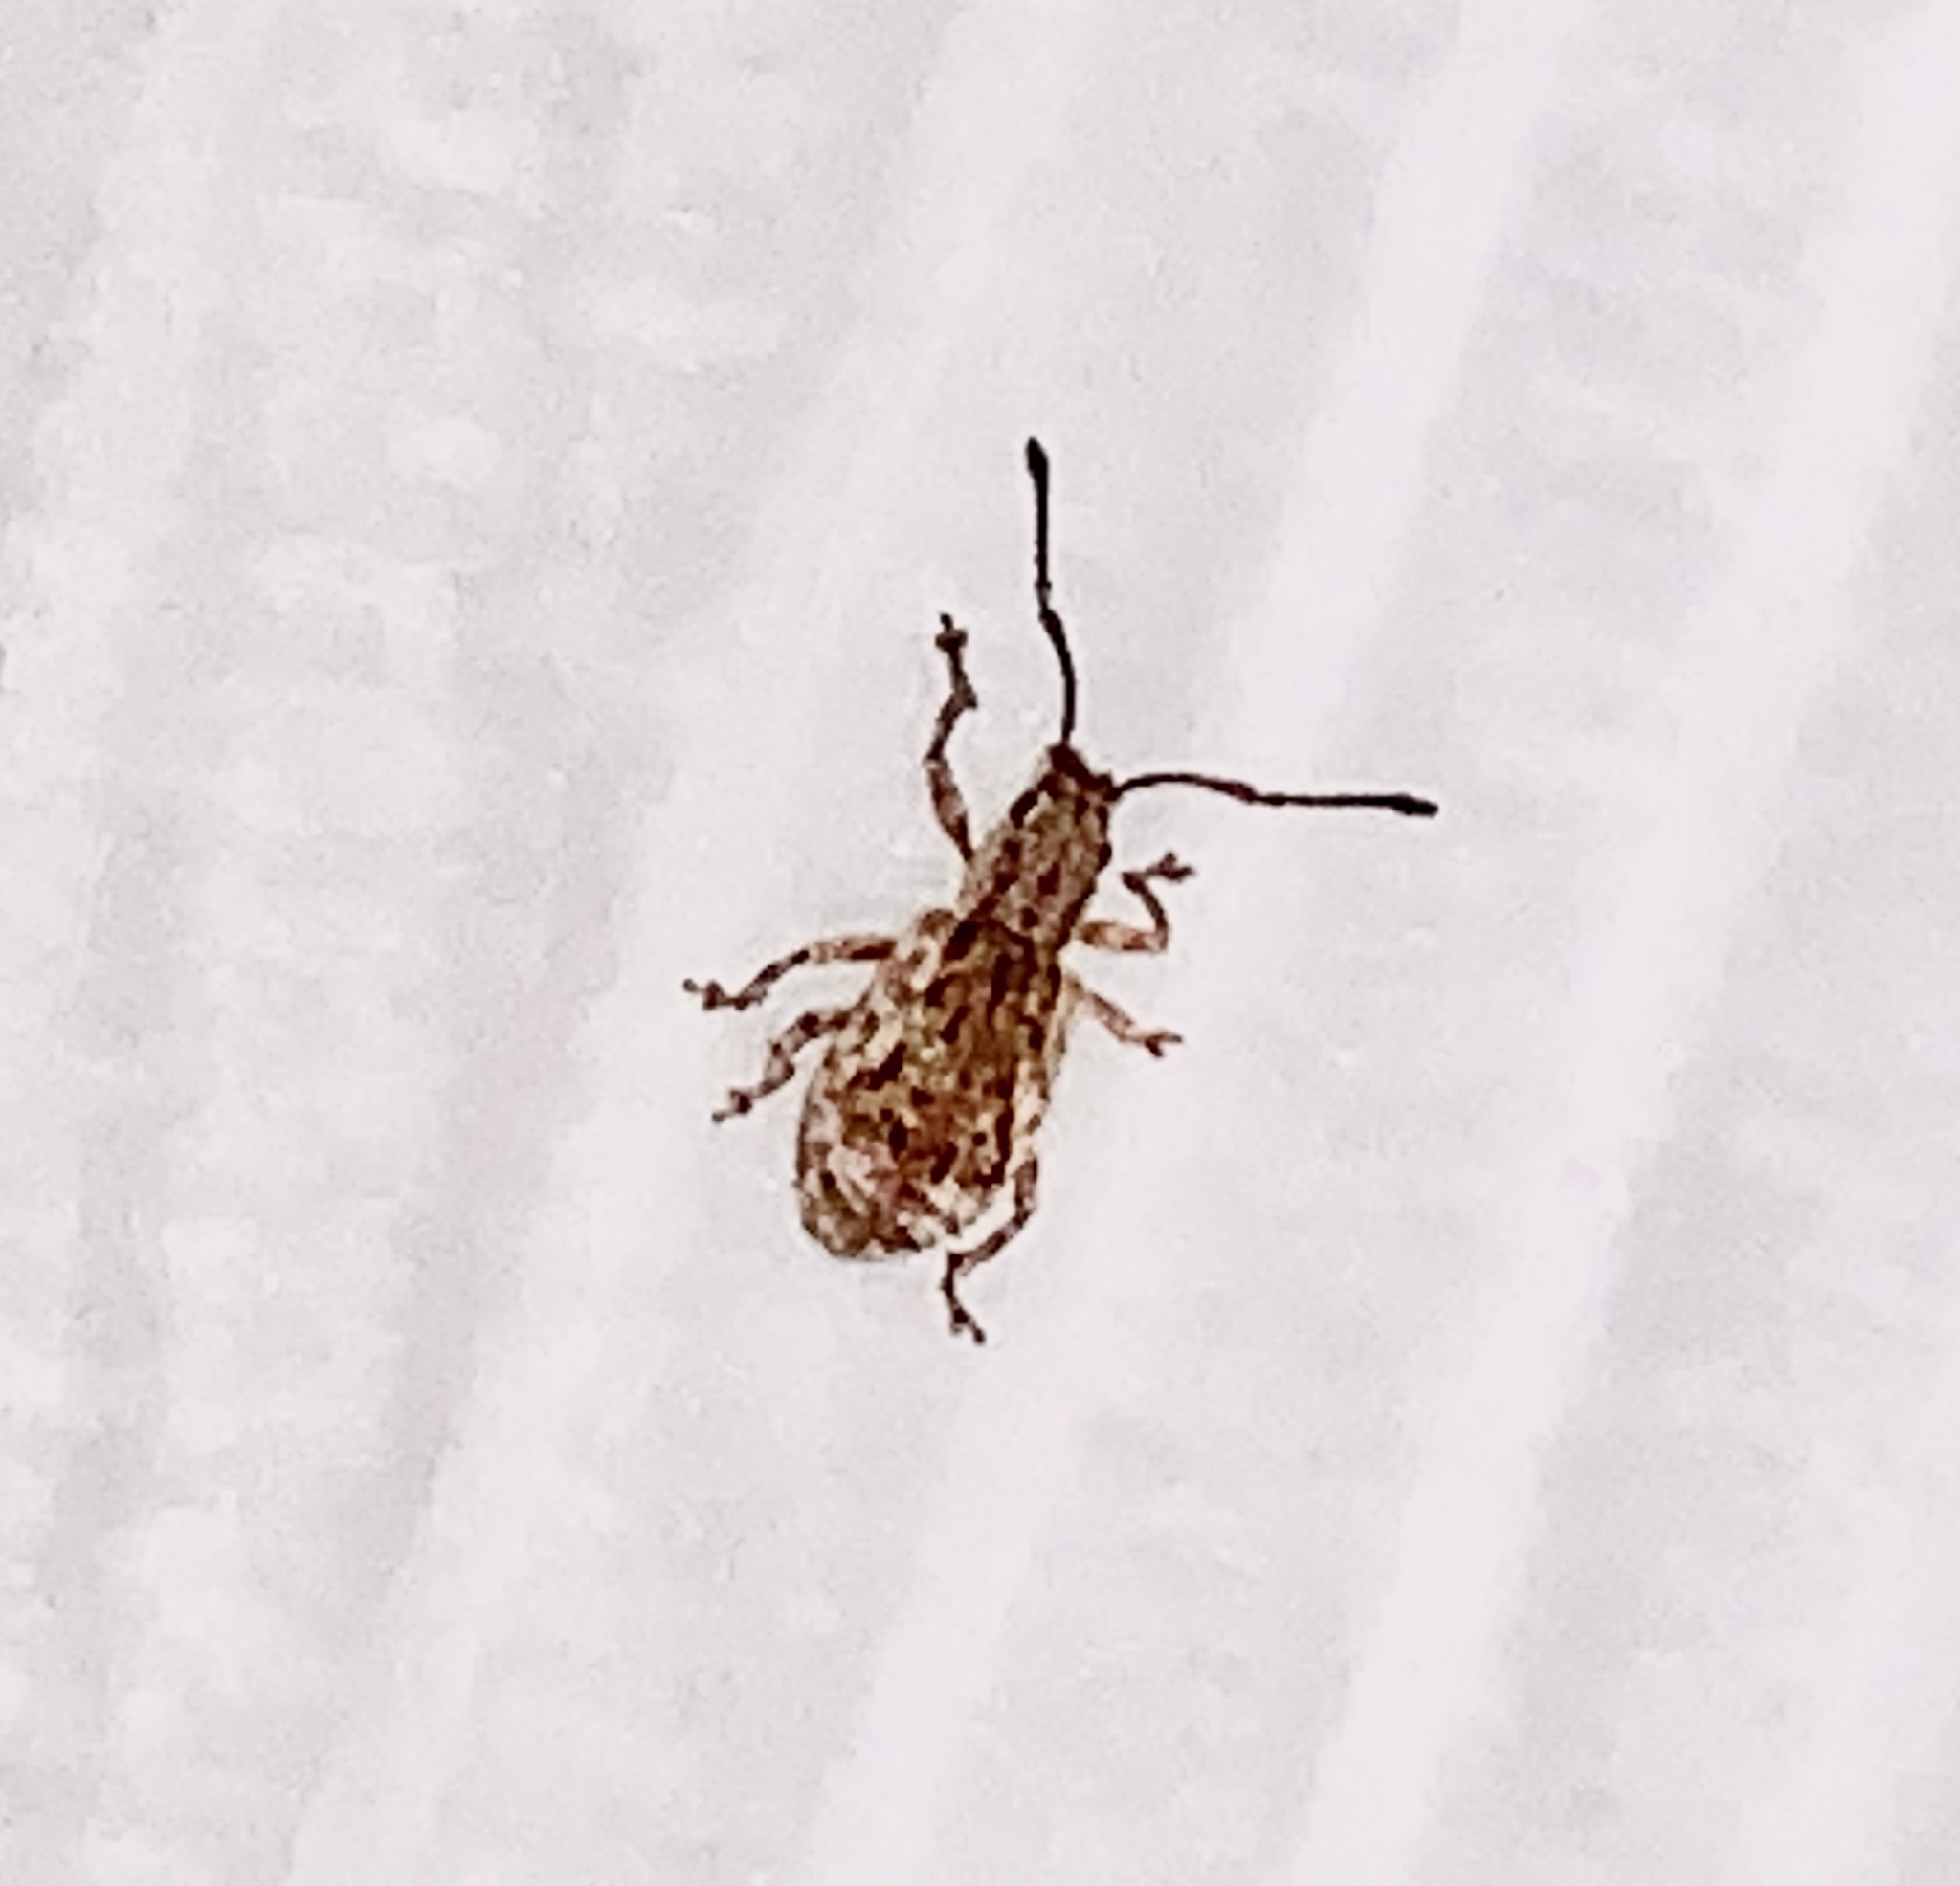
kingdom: Animalia
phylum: Arthropoda
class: Insecta
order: Coleoptera
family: Curculionidae
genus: Pseudoedophrys
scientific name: Pseudoedophrys hilleri
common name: Weevil
